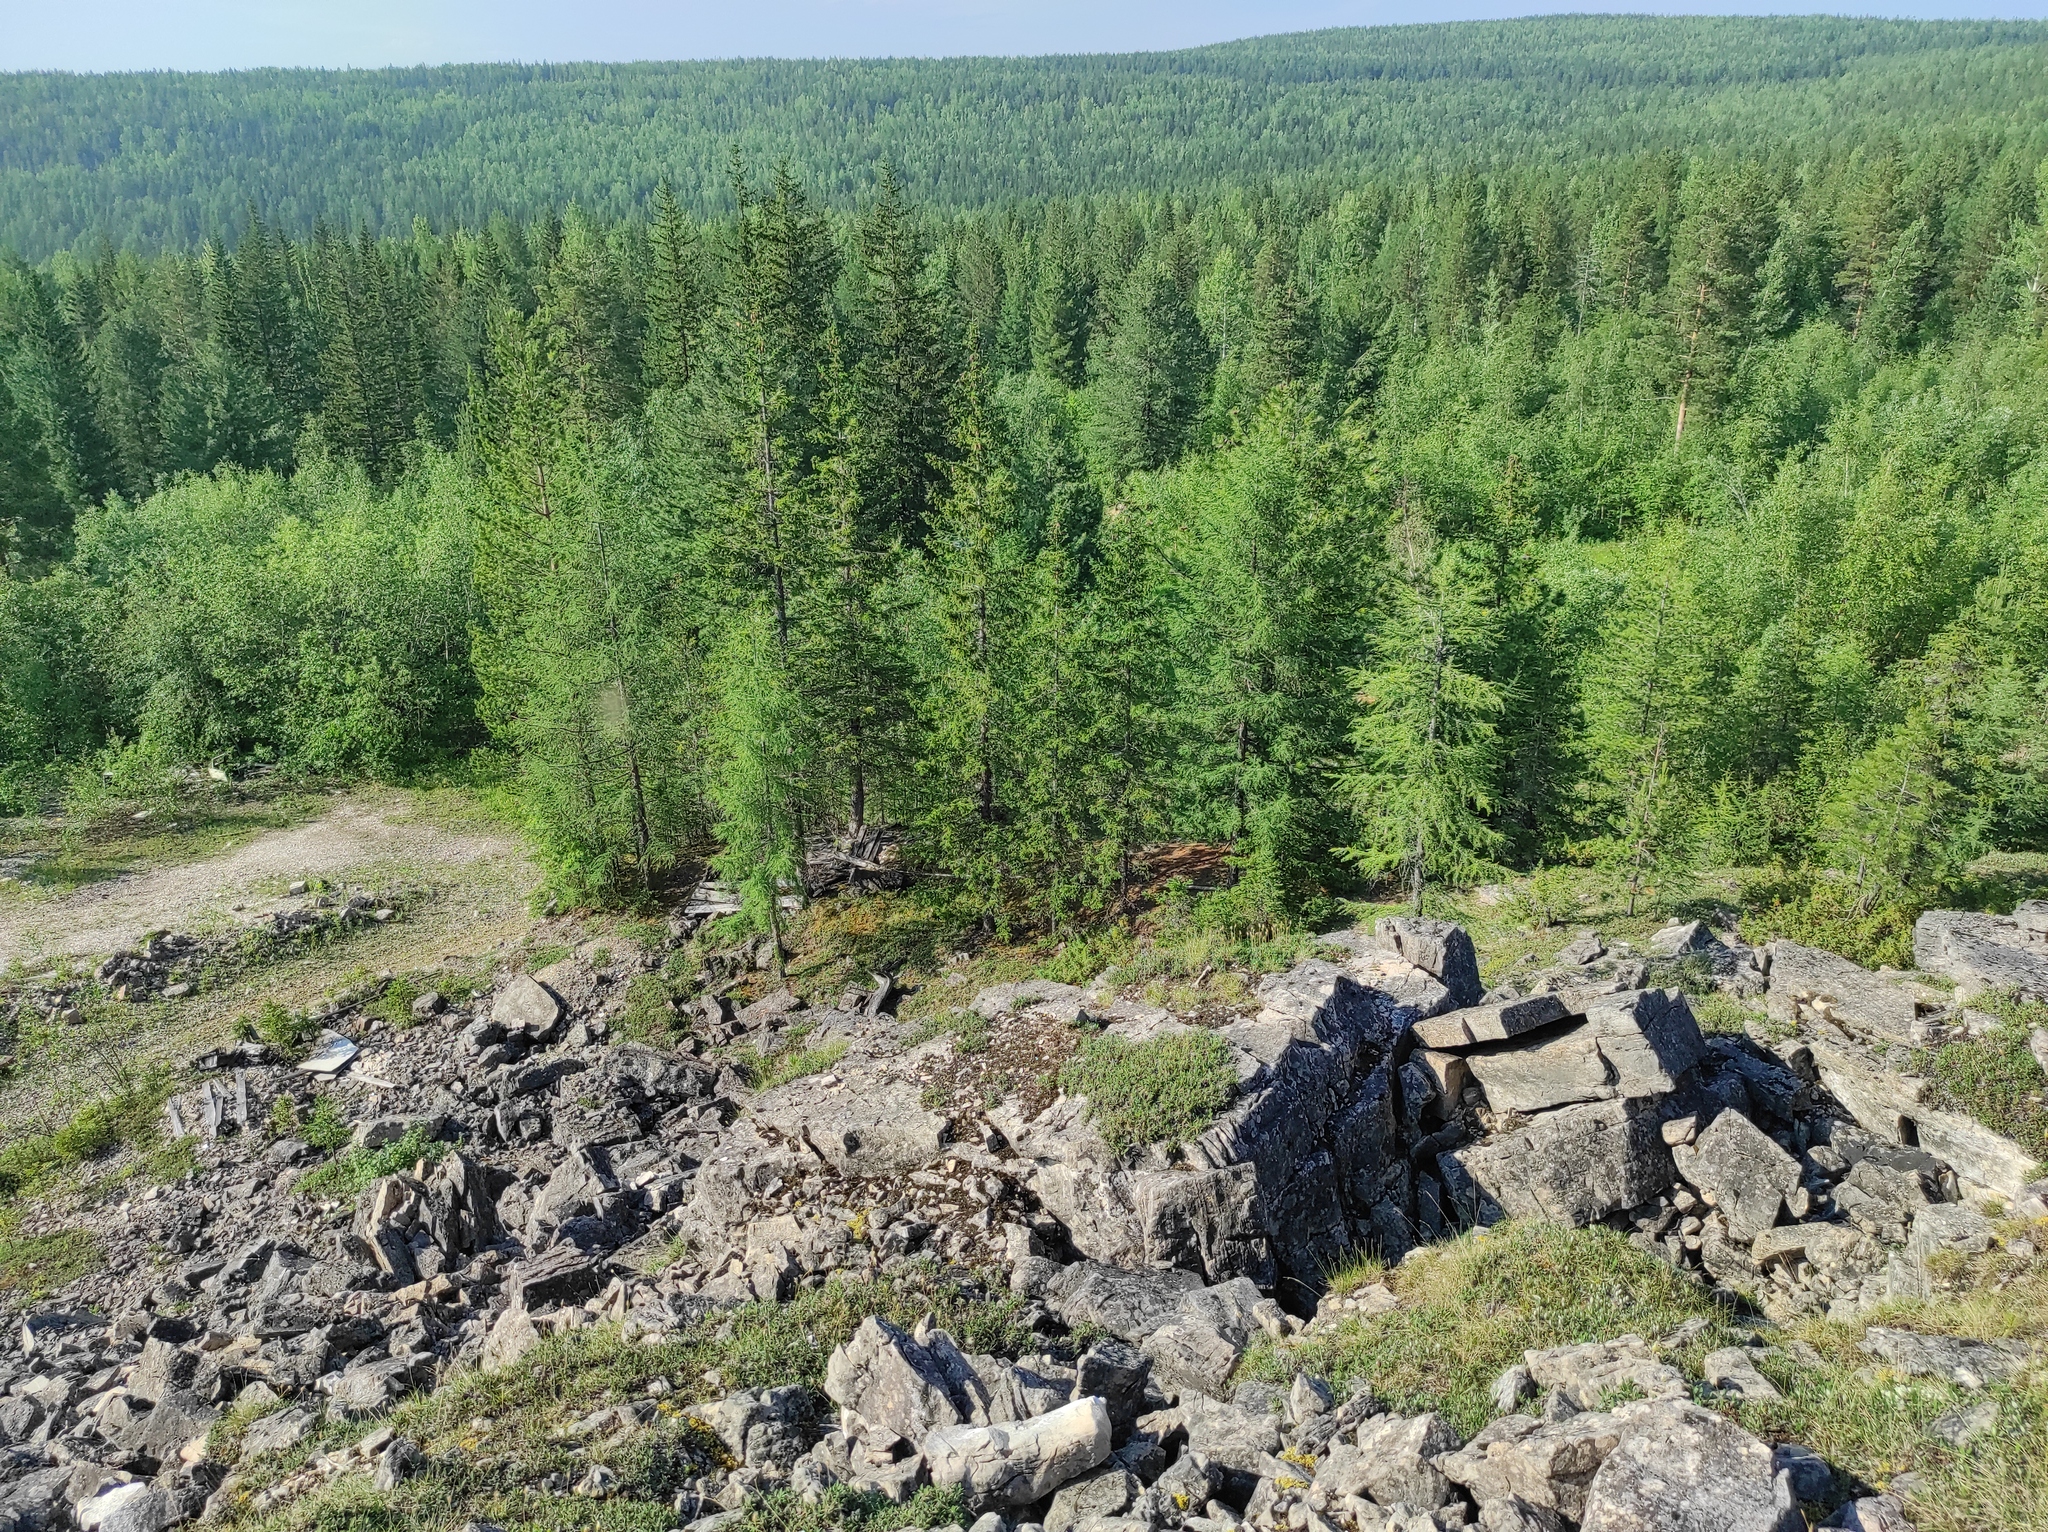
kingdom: Plantae
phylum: Tracheophyta
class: Pinopsida
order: Pinales
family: Pinaceae
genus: Pinus
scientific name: Pinus sibirica
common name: Siberian pine
